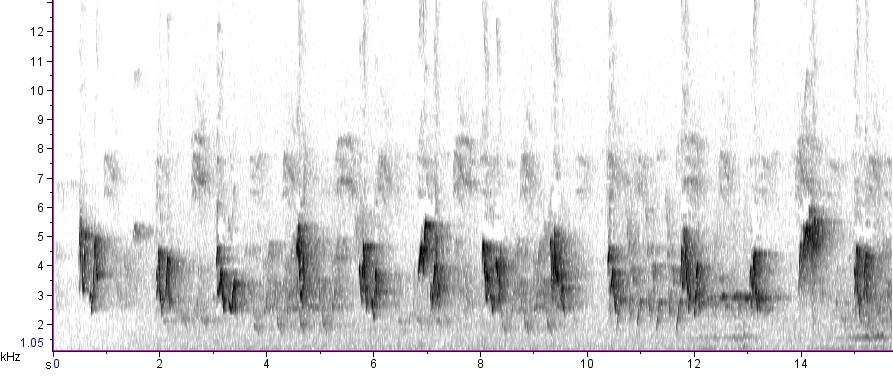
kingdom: Animalia
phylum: Chordata
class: Aves
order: Passeriformes
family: Vireonidae
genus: Vireo
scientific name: Vireo olivaceus
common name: Red-eyed vireo
